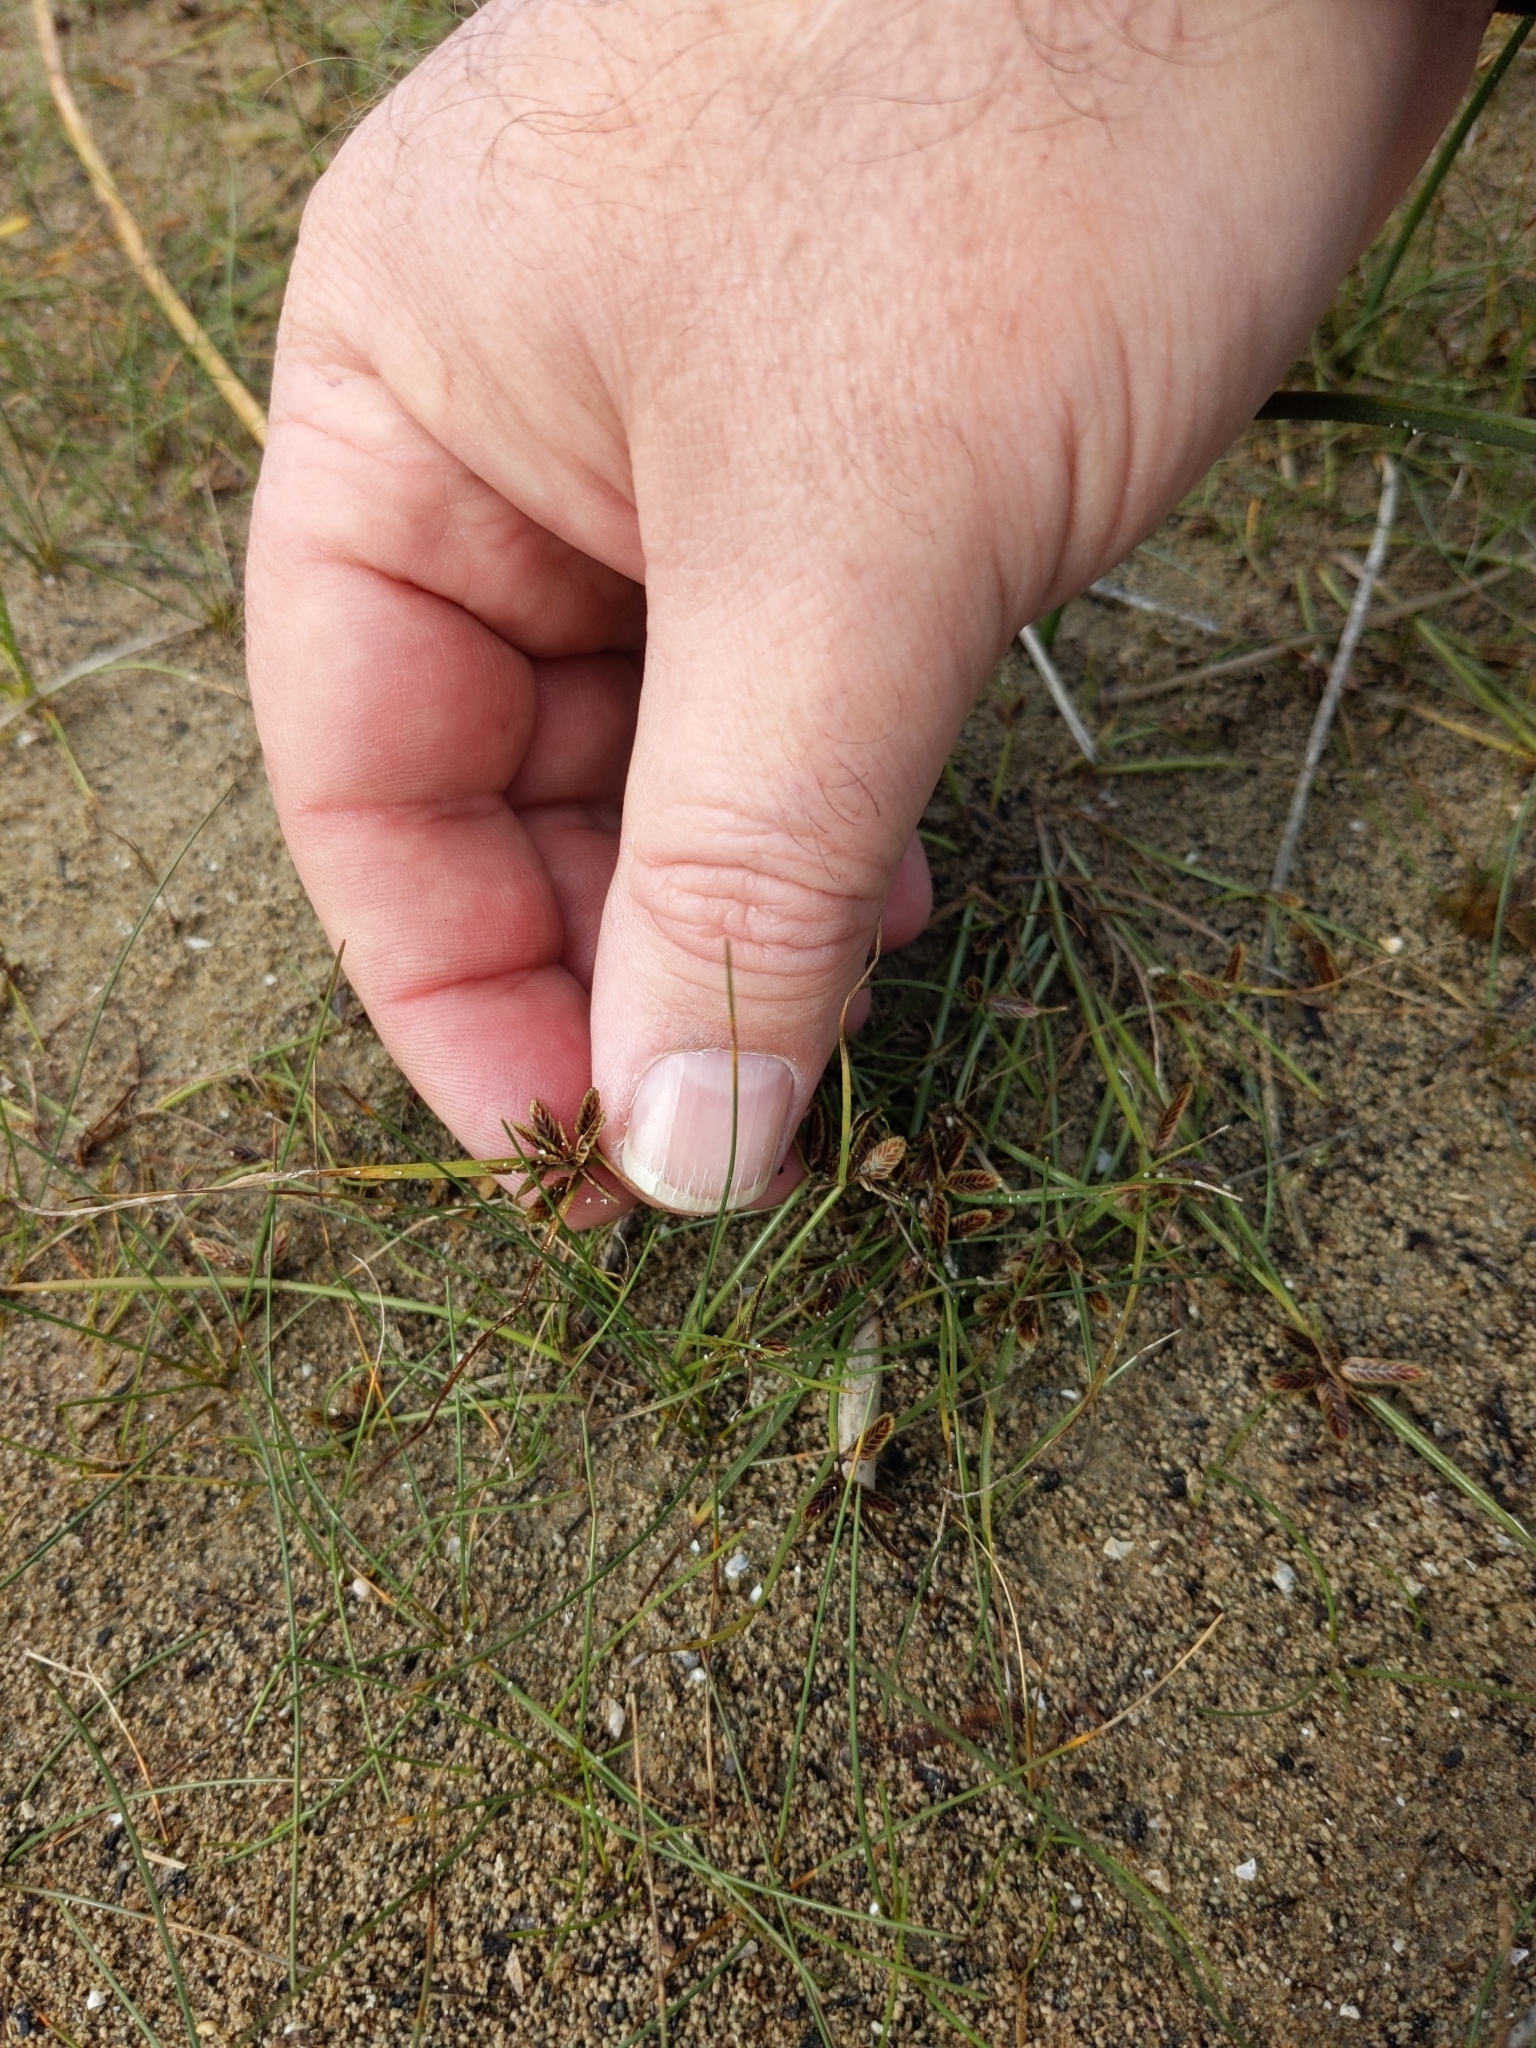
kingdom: Plantae
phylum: Tracheophyta
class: Liliopsida
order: Poales
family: Cyperaceae
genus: Cyperus
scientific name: Cyperus bipartitus
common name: Brook flatsedge
